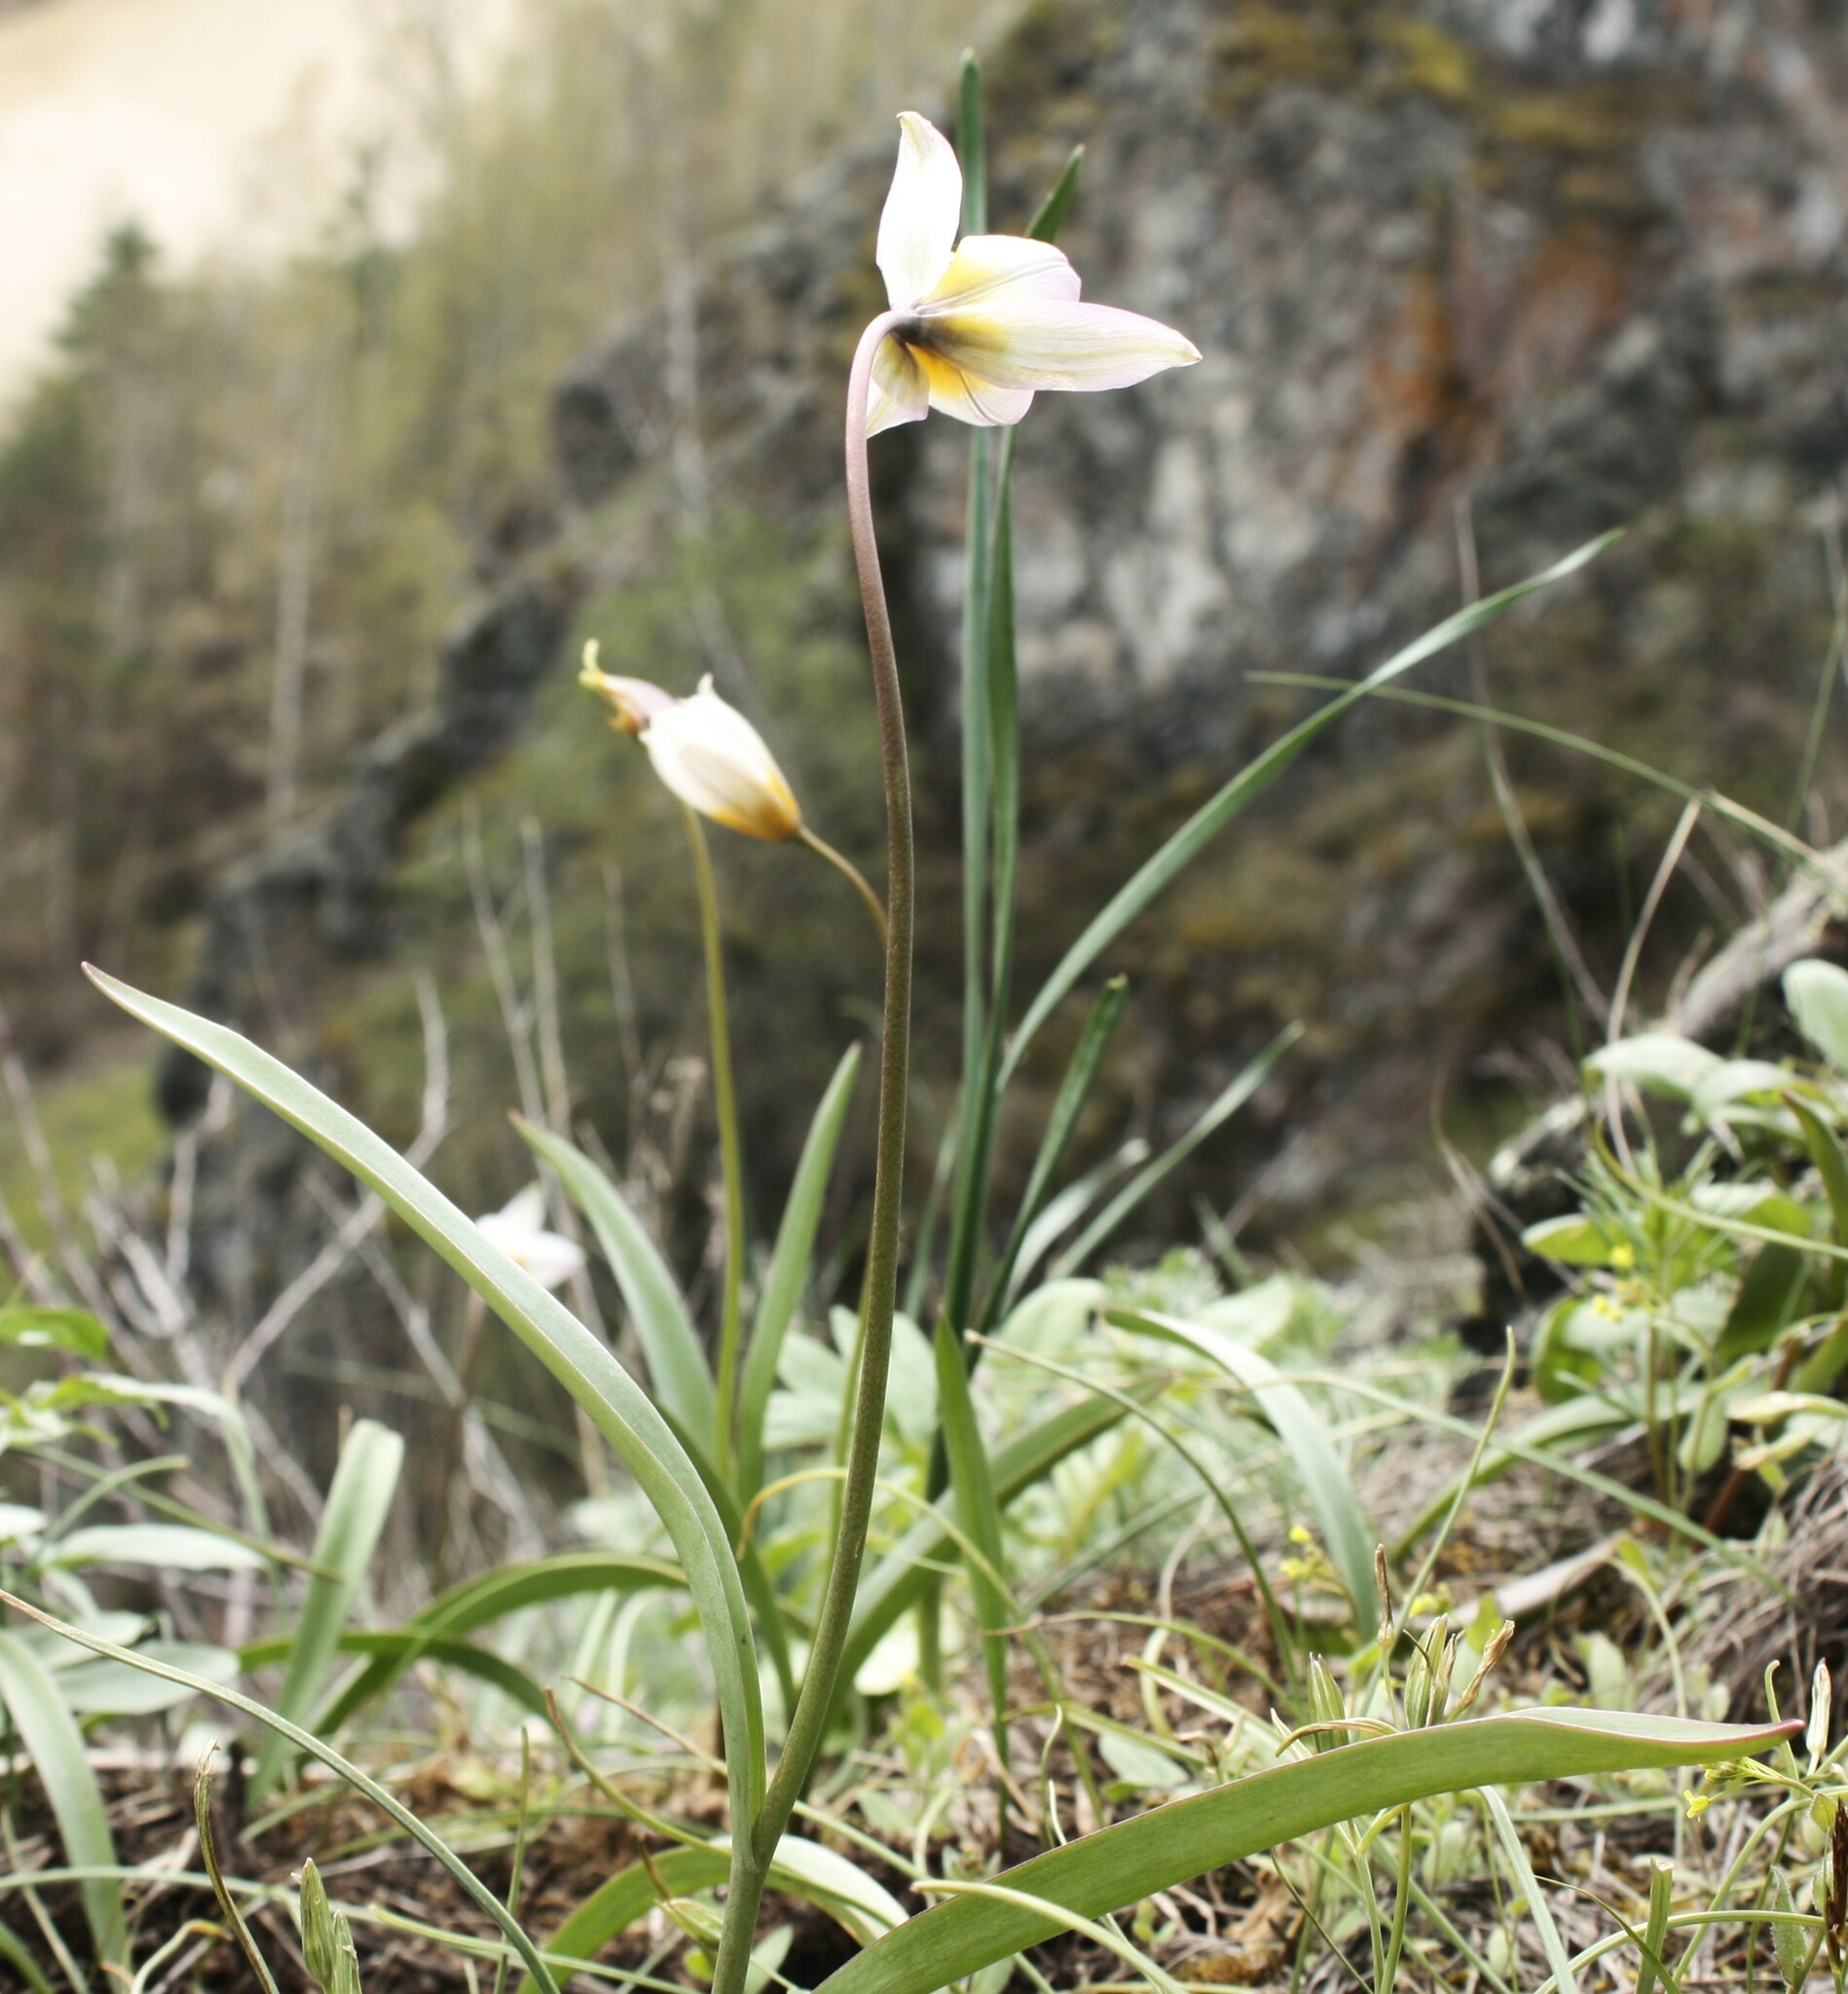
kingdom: Plantae
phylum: Tracheophyta
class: Liliopsida
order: Liliales
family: Liliaceae
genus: Tulipa
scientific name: Tulipa patens
